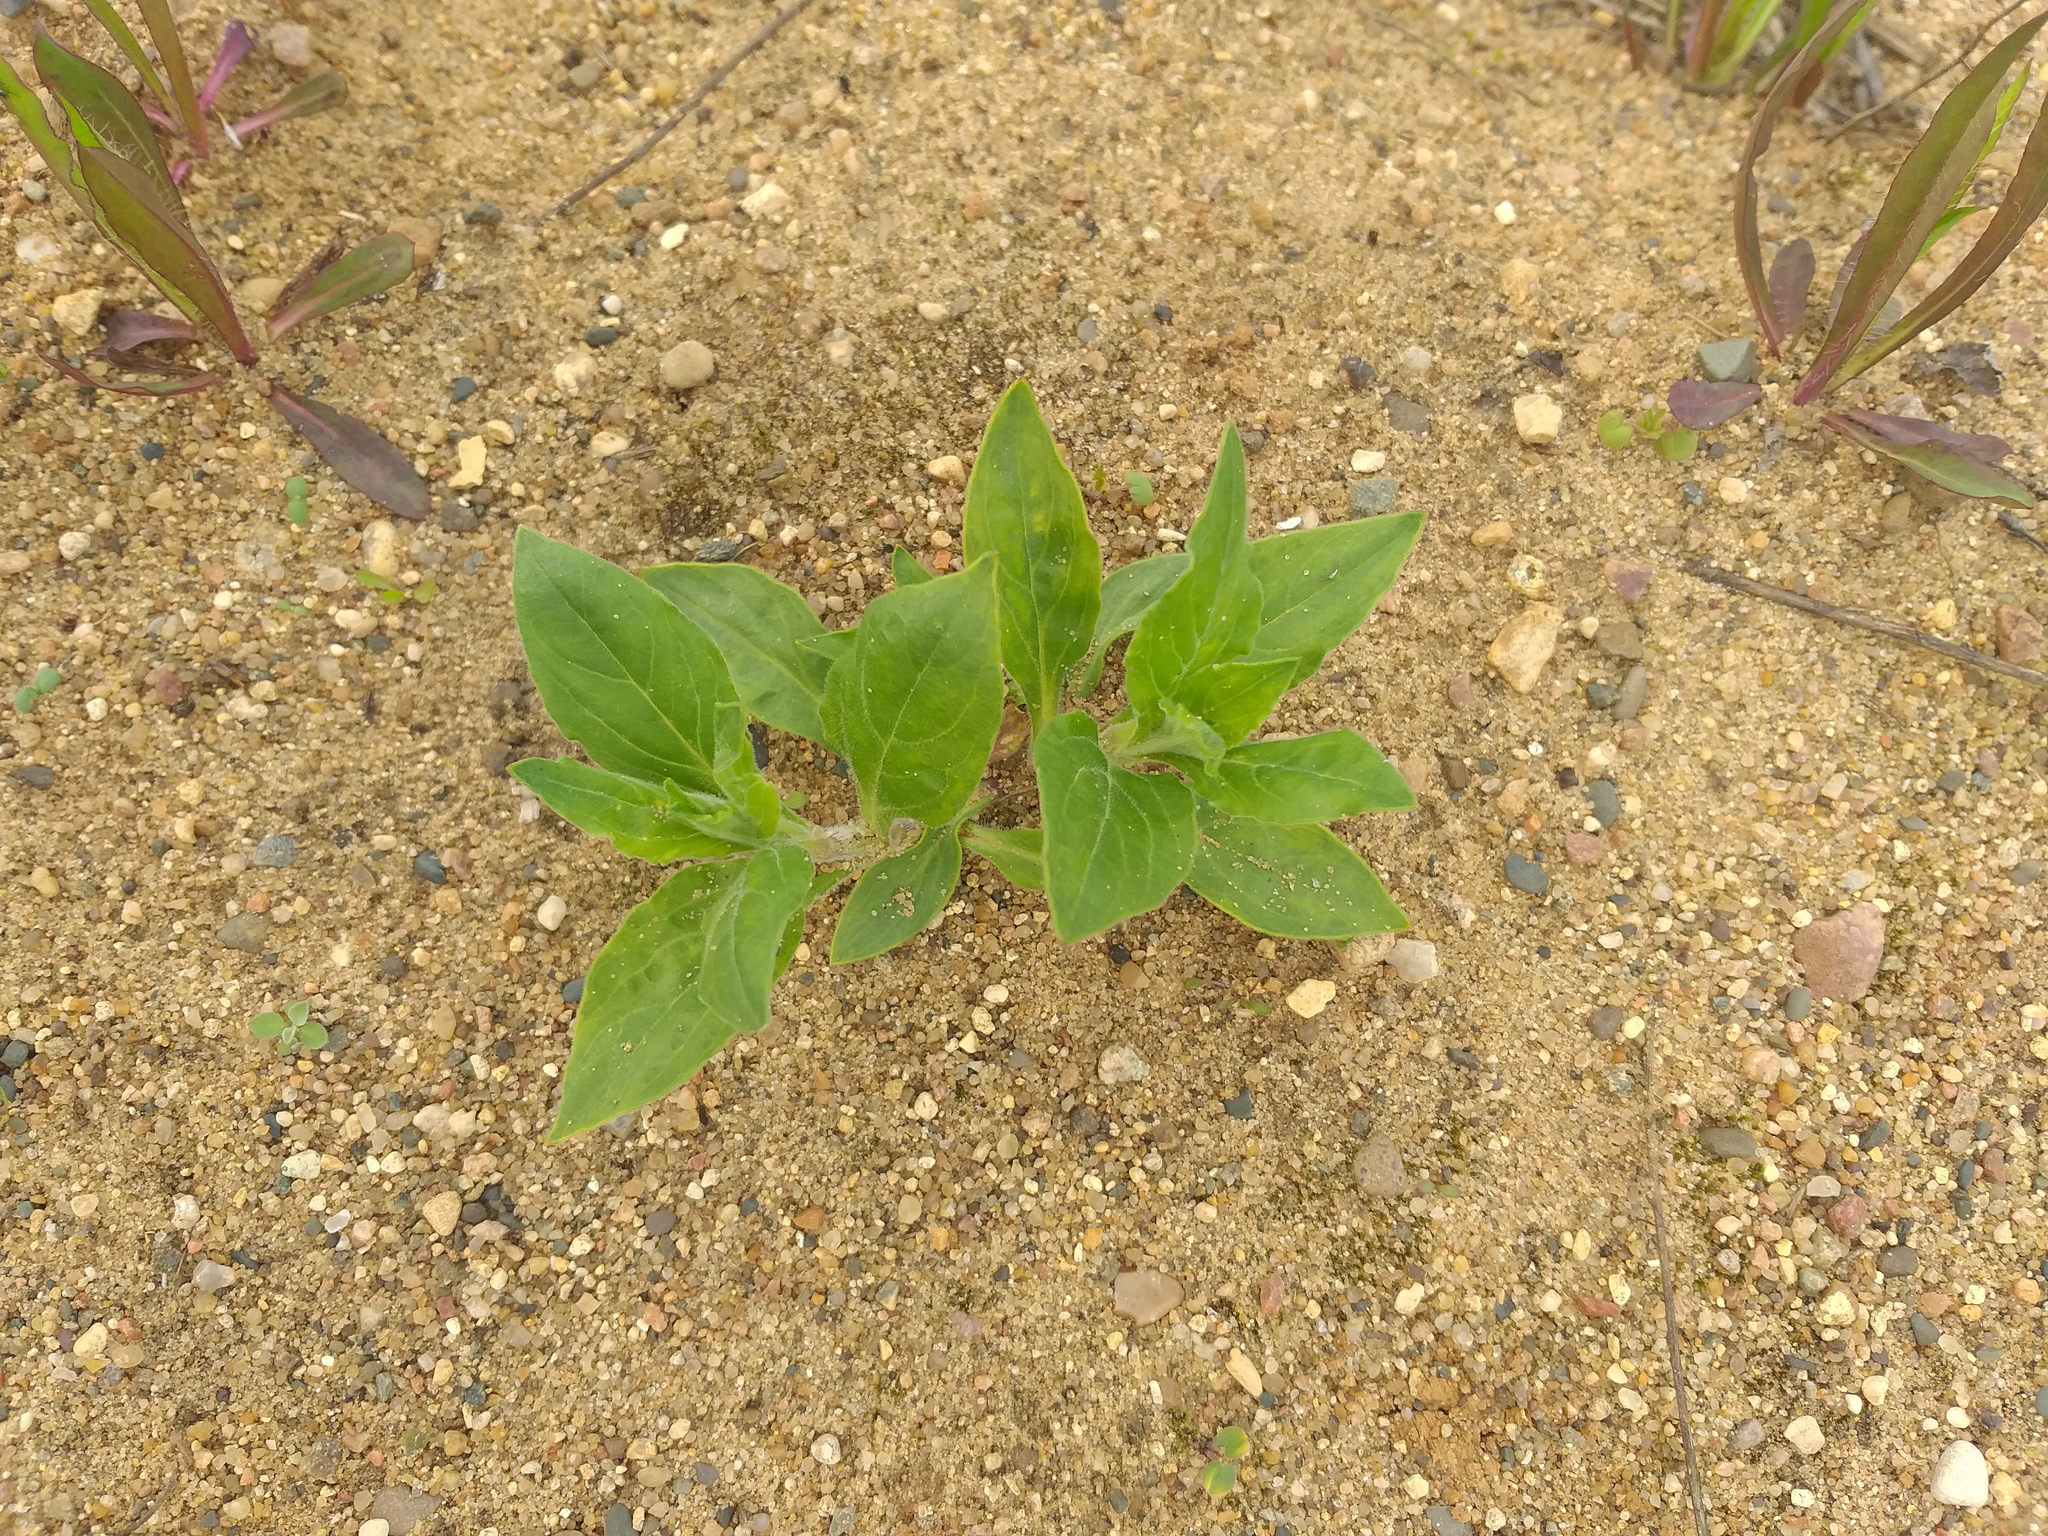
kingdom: Plantae
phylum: Tracheophyta
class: Magnoliopsida
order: Caryophyllales
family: Caryophyllaceae
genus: Silene
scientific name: Silene latifolia
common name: White campion
